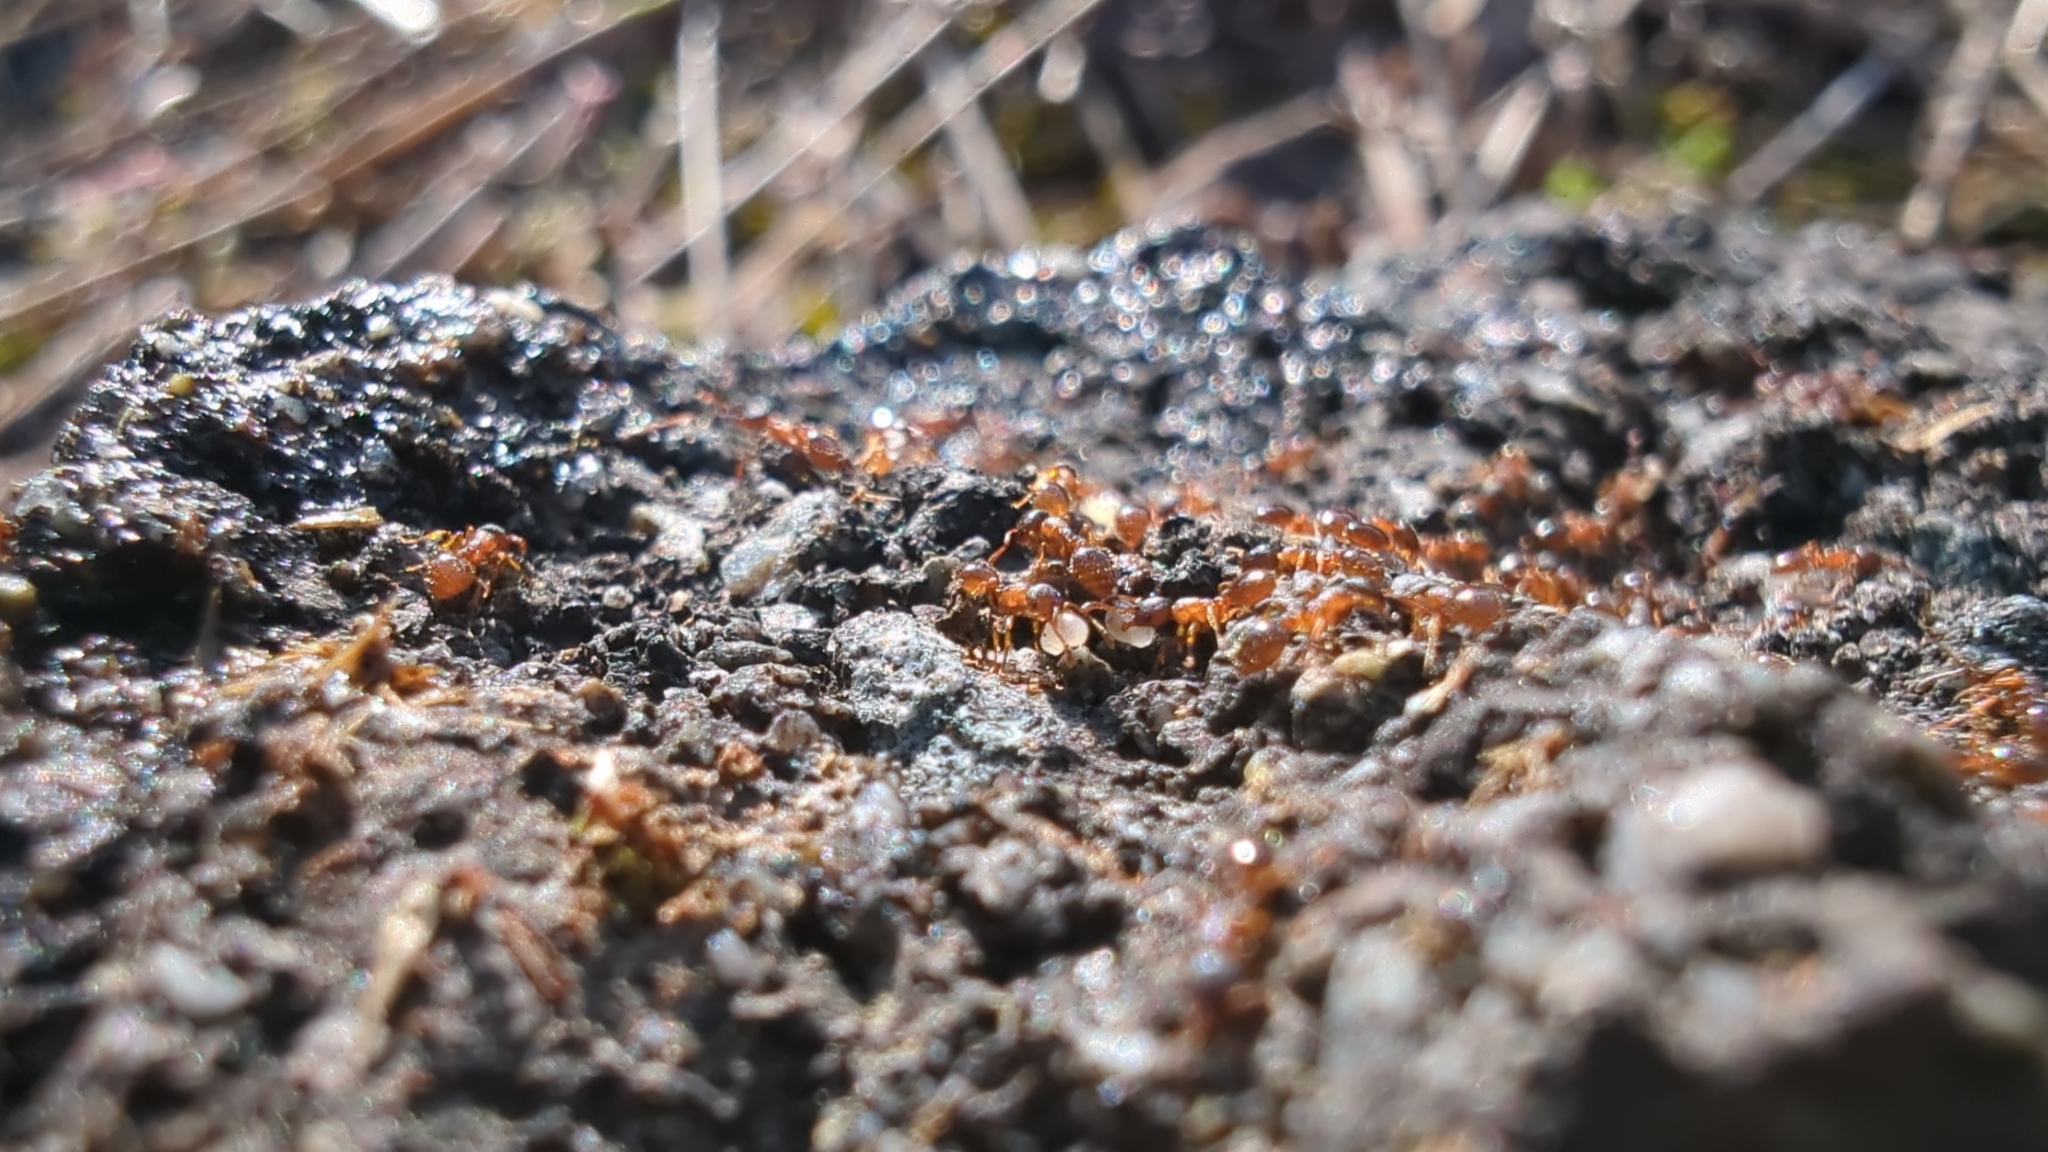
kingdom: Animalia
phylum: Arthropoda
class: Insecta
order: Hymenoptera
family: Formicidae
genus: Myrmica
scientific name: Myrmica rubra
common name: European fire ant
